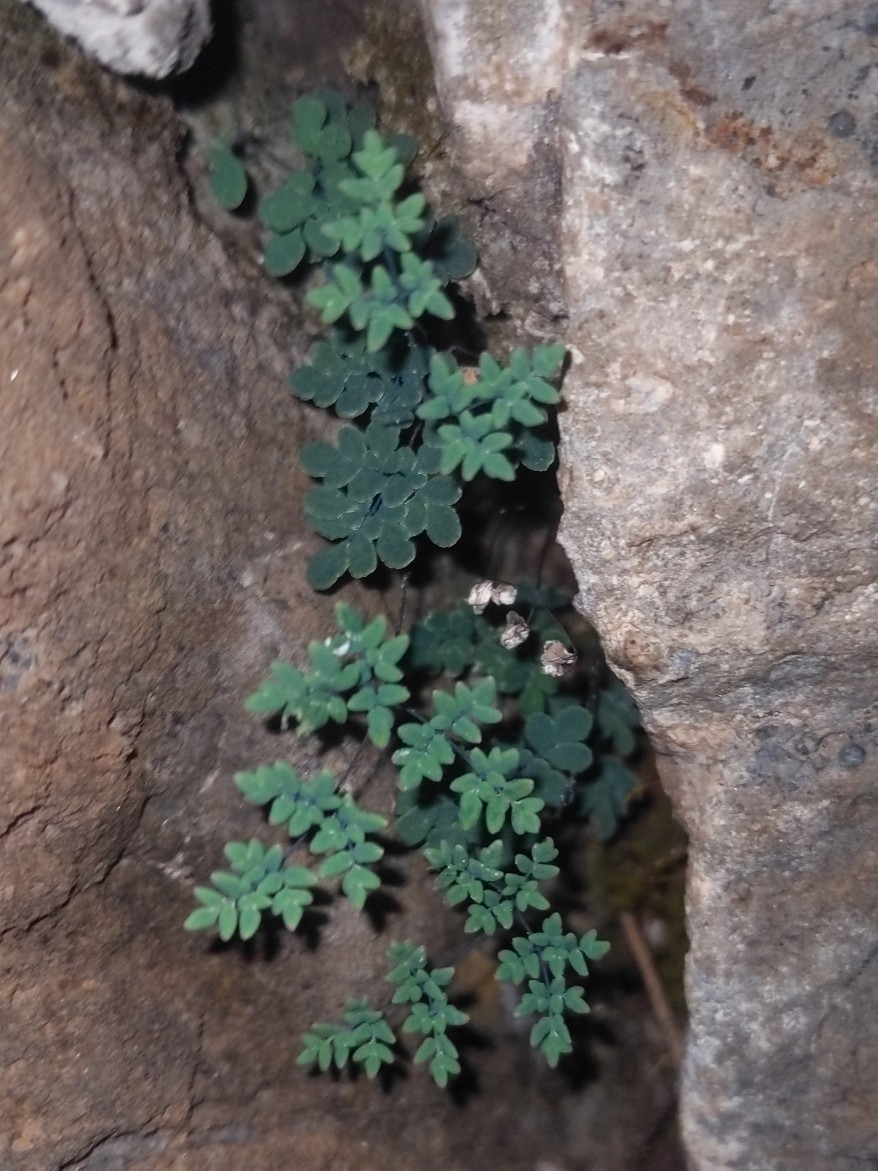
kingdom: Plantae
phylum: Tracheophyta
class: Polypodiopsida
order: Polypodiales
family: Pteridaceae
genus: Argyrochosma
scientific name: Argyrochosma limitanea
